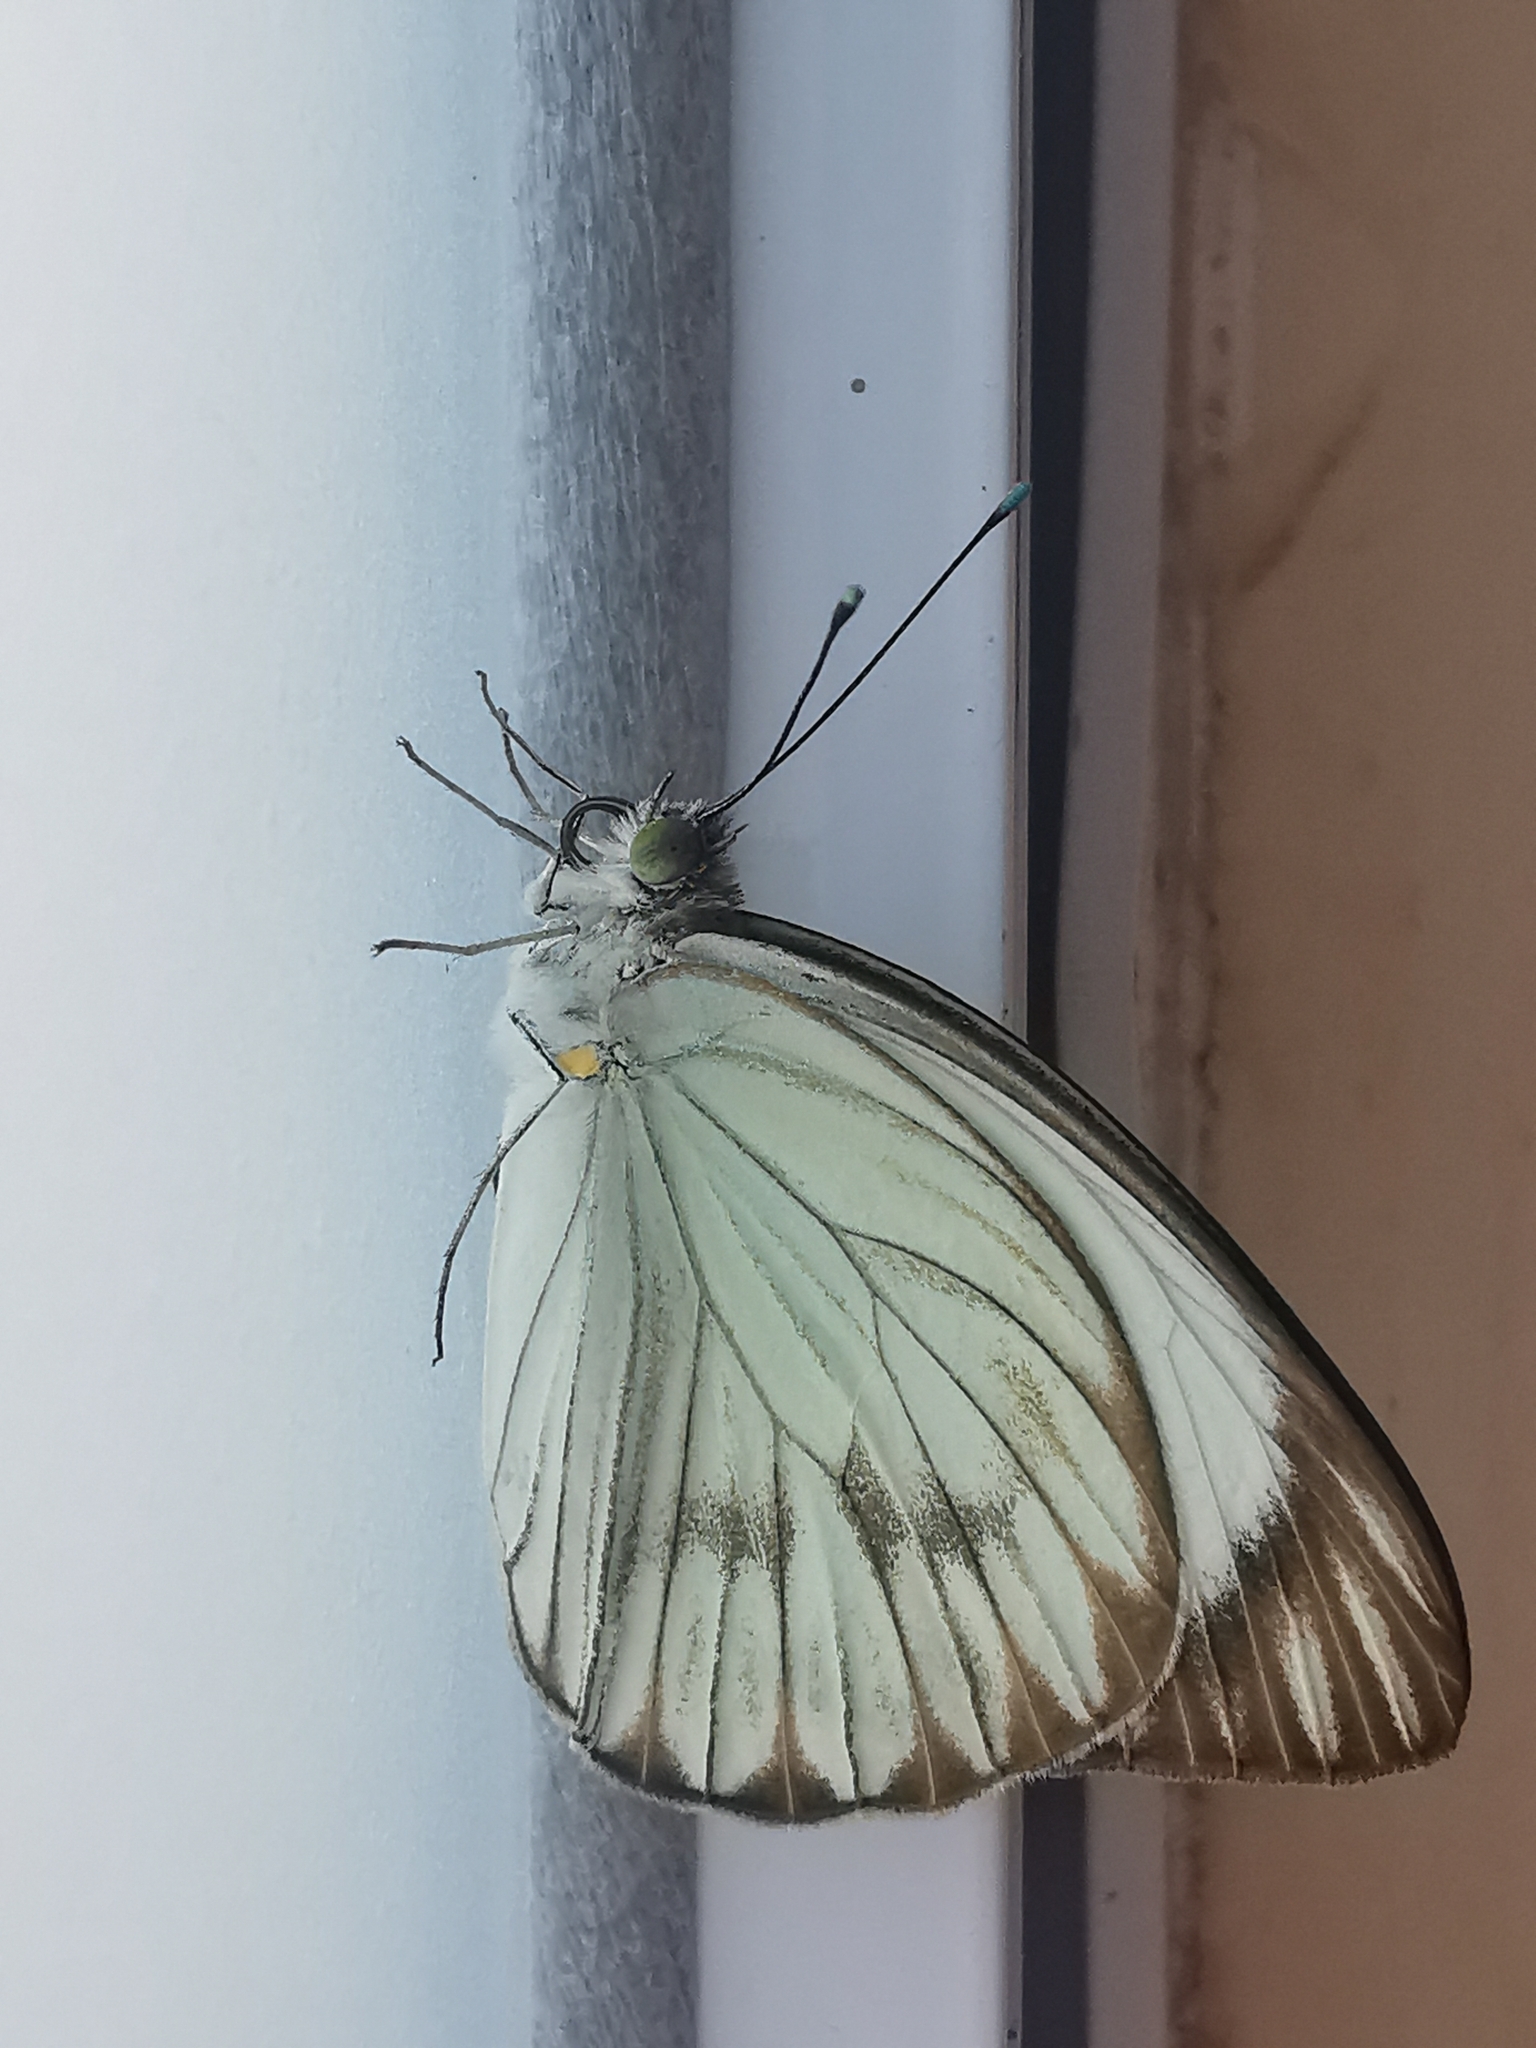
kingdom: Animalia
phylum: Arthropoda
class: Insecta
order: Lepidoptera
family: Pieridae
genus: Ascia
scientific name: Ascia monuste
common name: Great southern white
